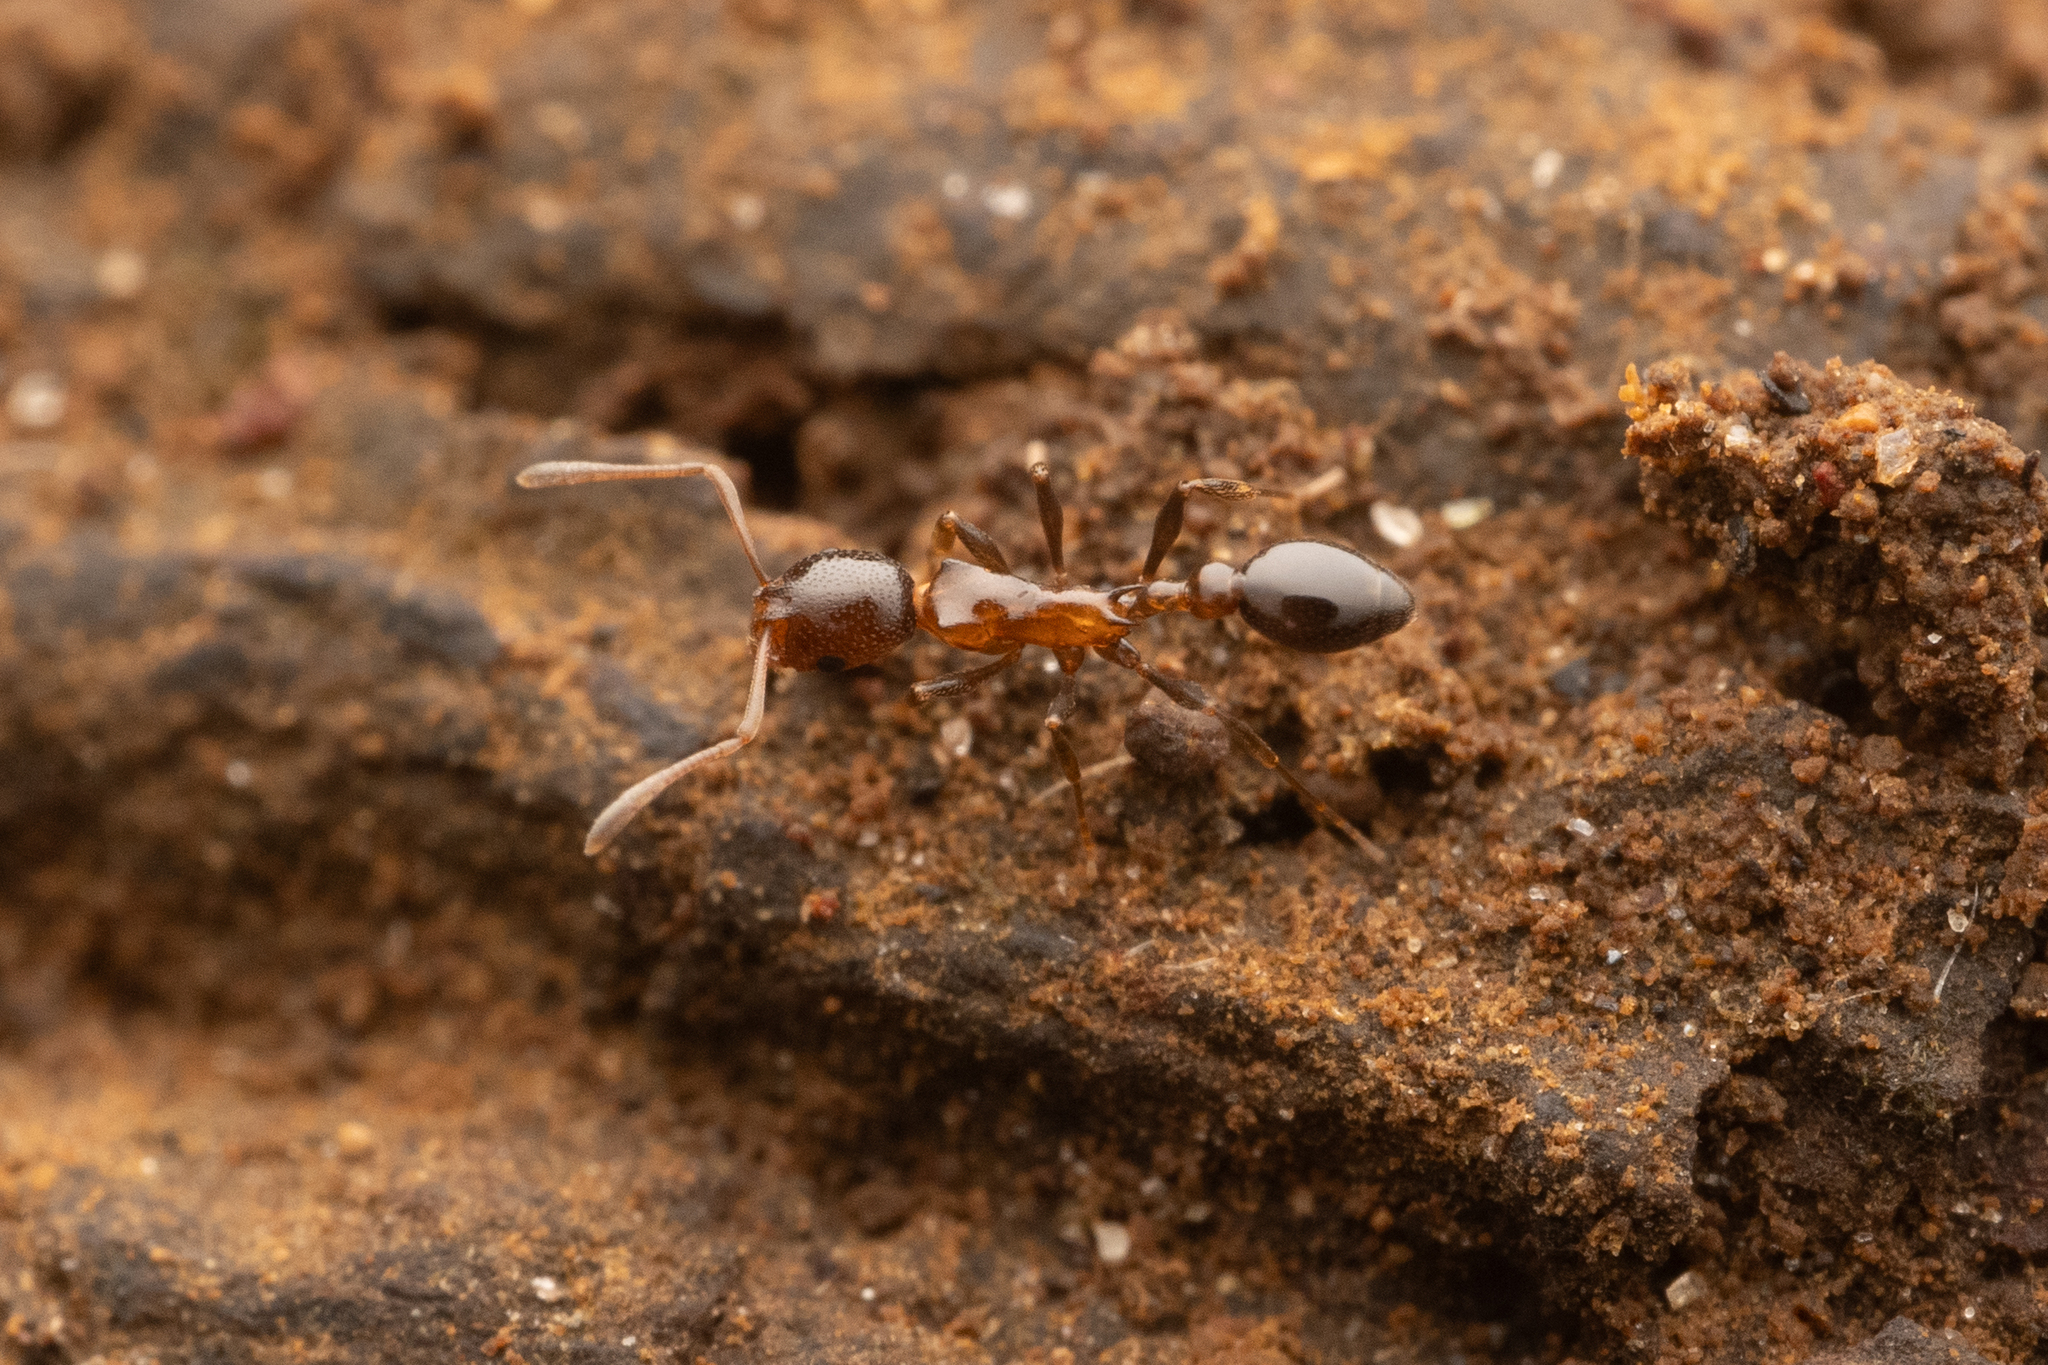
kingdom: Animalia
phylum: Arthropoda
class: Insecta
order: Hymenoptera
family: Formicidae
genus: Cardiocondyla
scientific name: Cardiocondyla paradoxa
